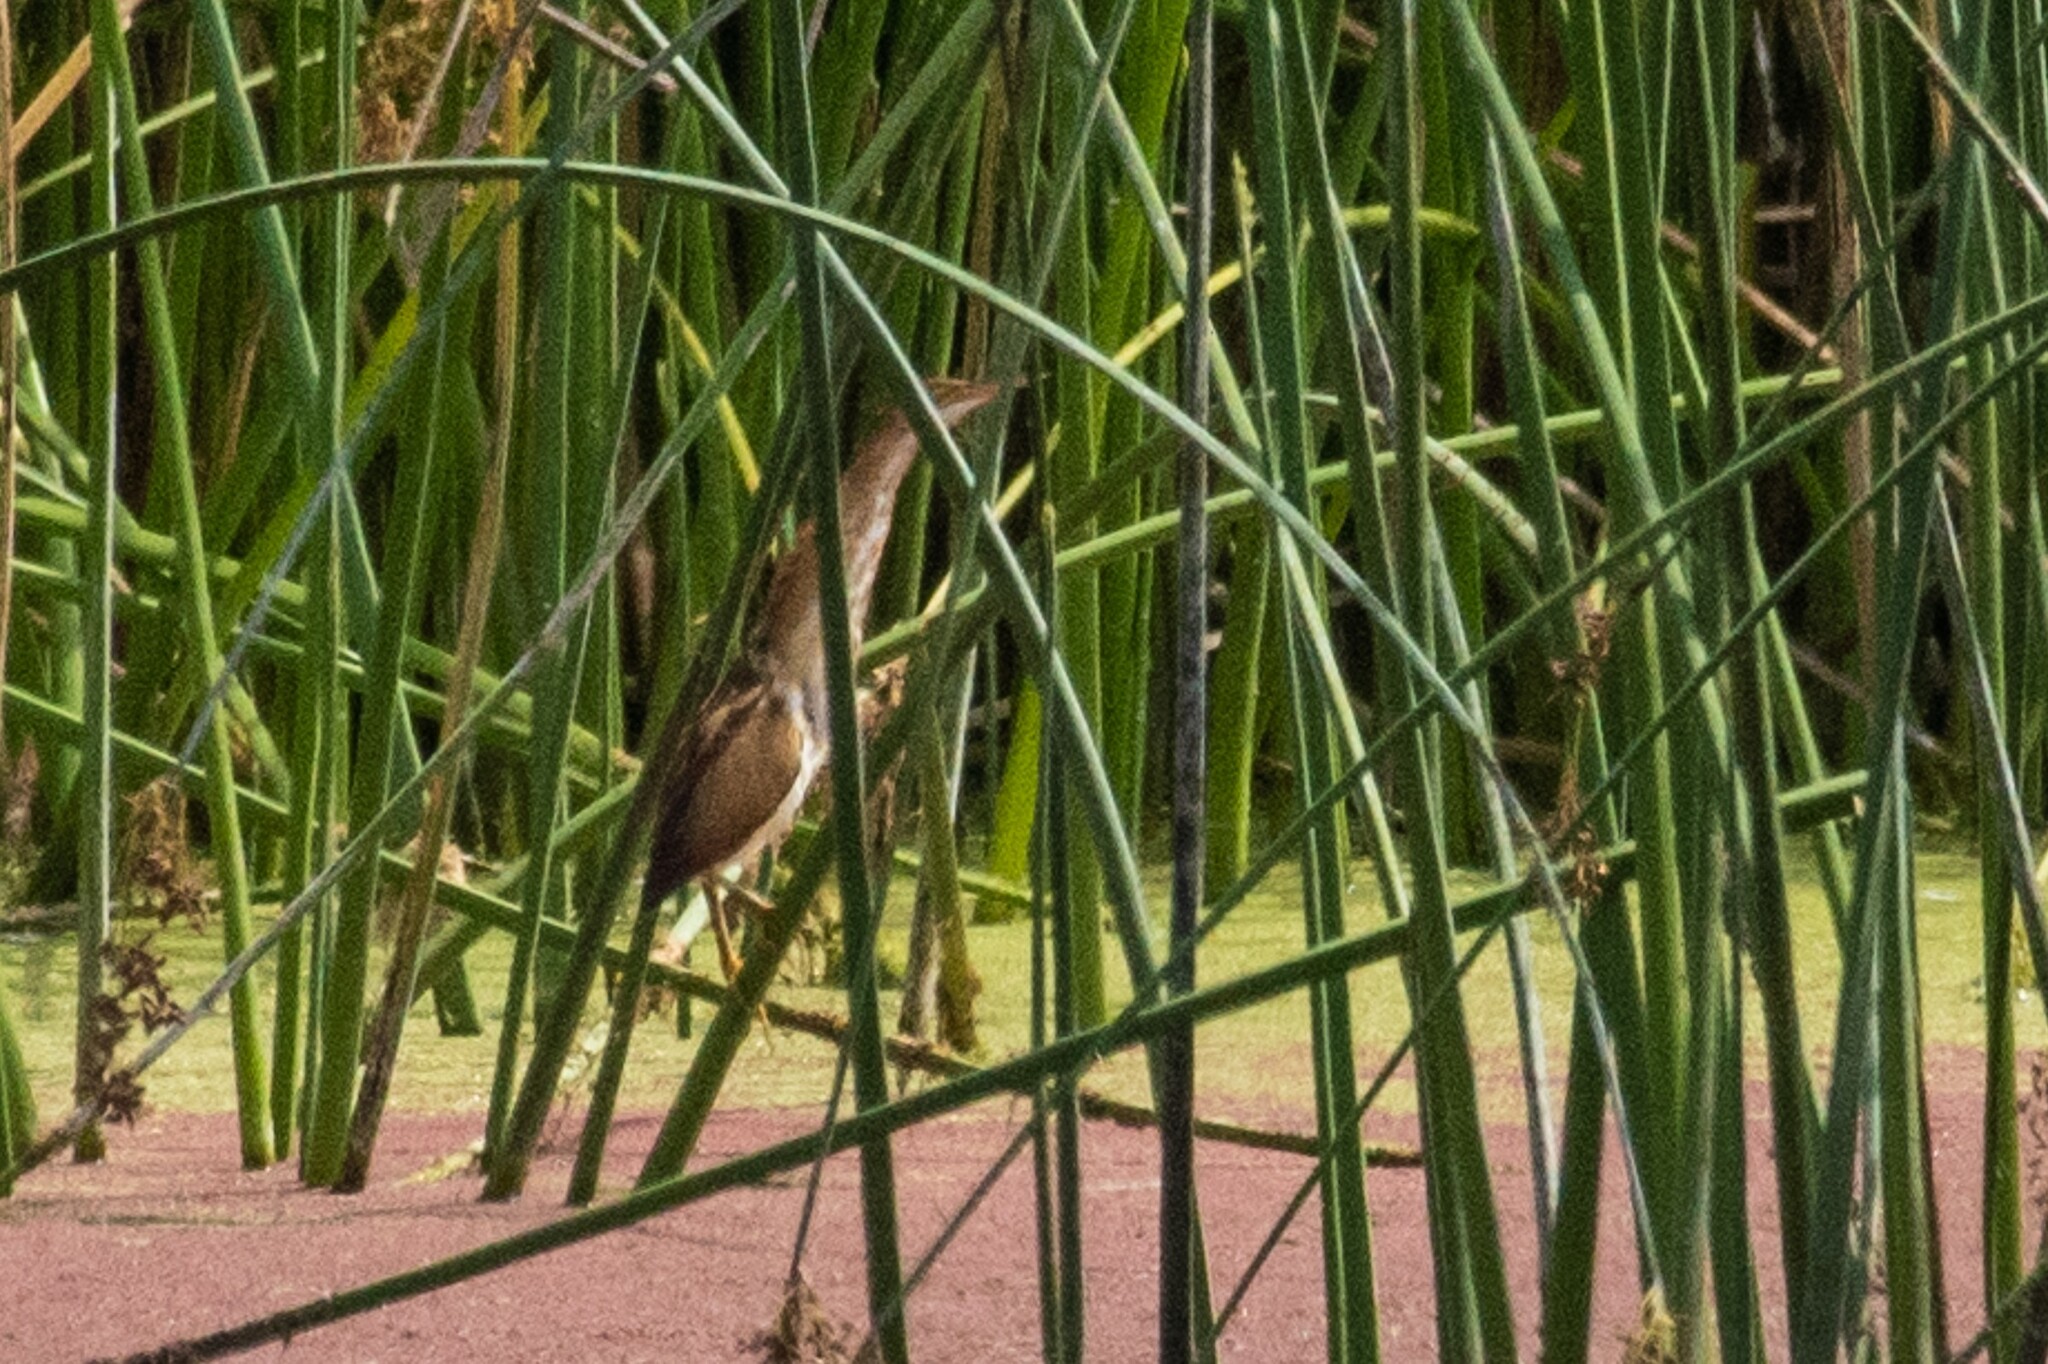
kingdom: Animalia
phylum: Chordata
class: Aves
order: Pelecaniformes
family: Ardeidae
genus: Ixobrychus
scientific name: Ixobrychus exilis
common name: Least bittern
